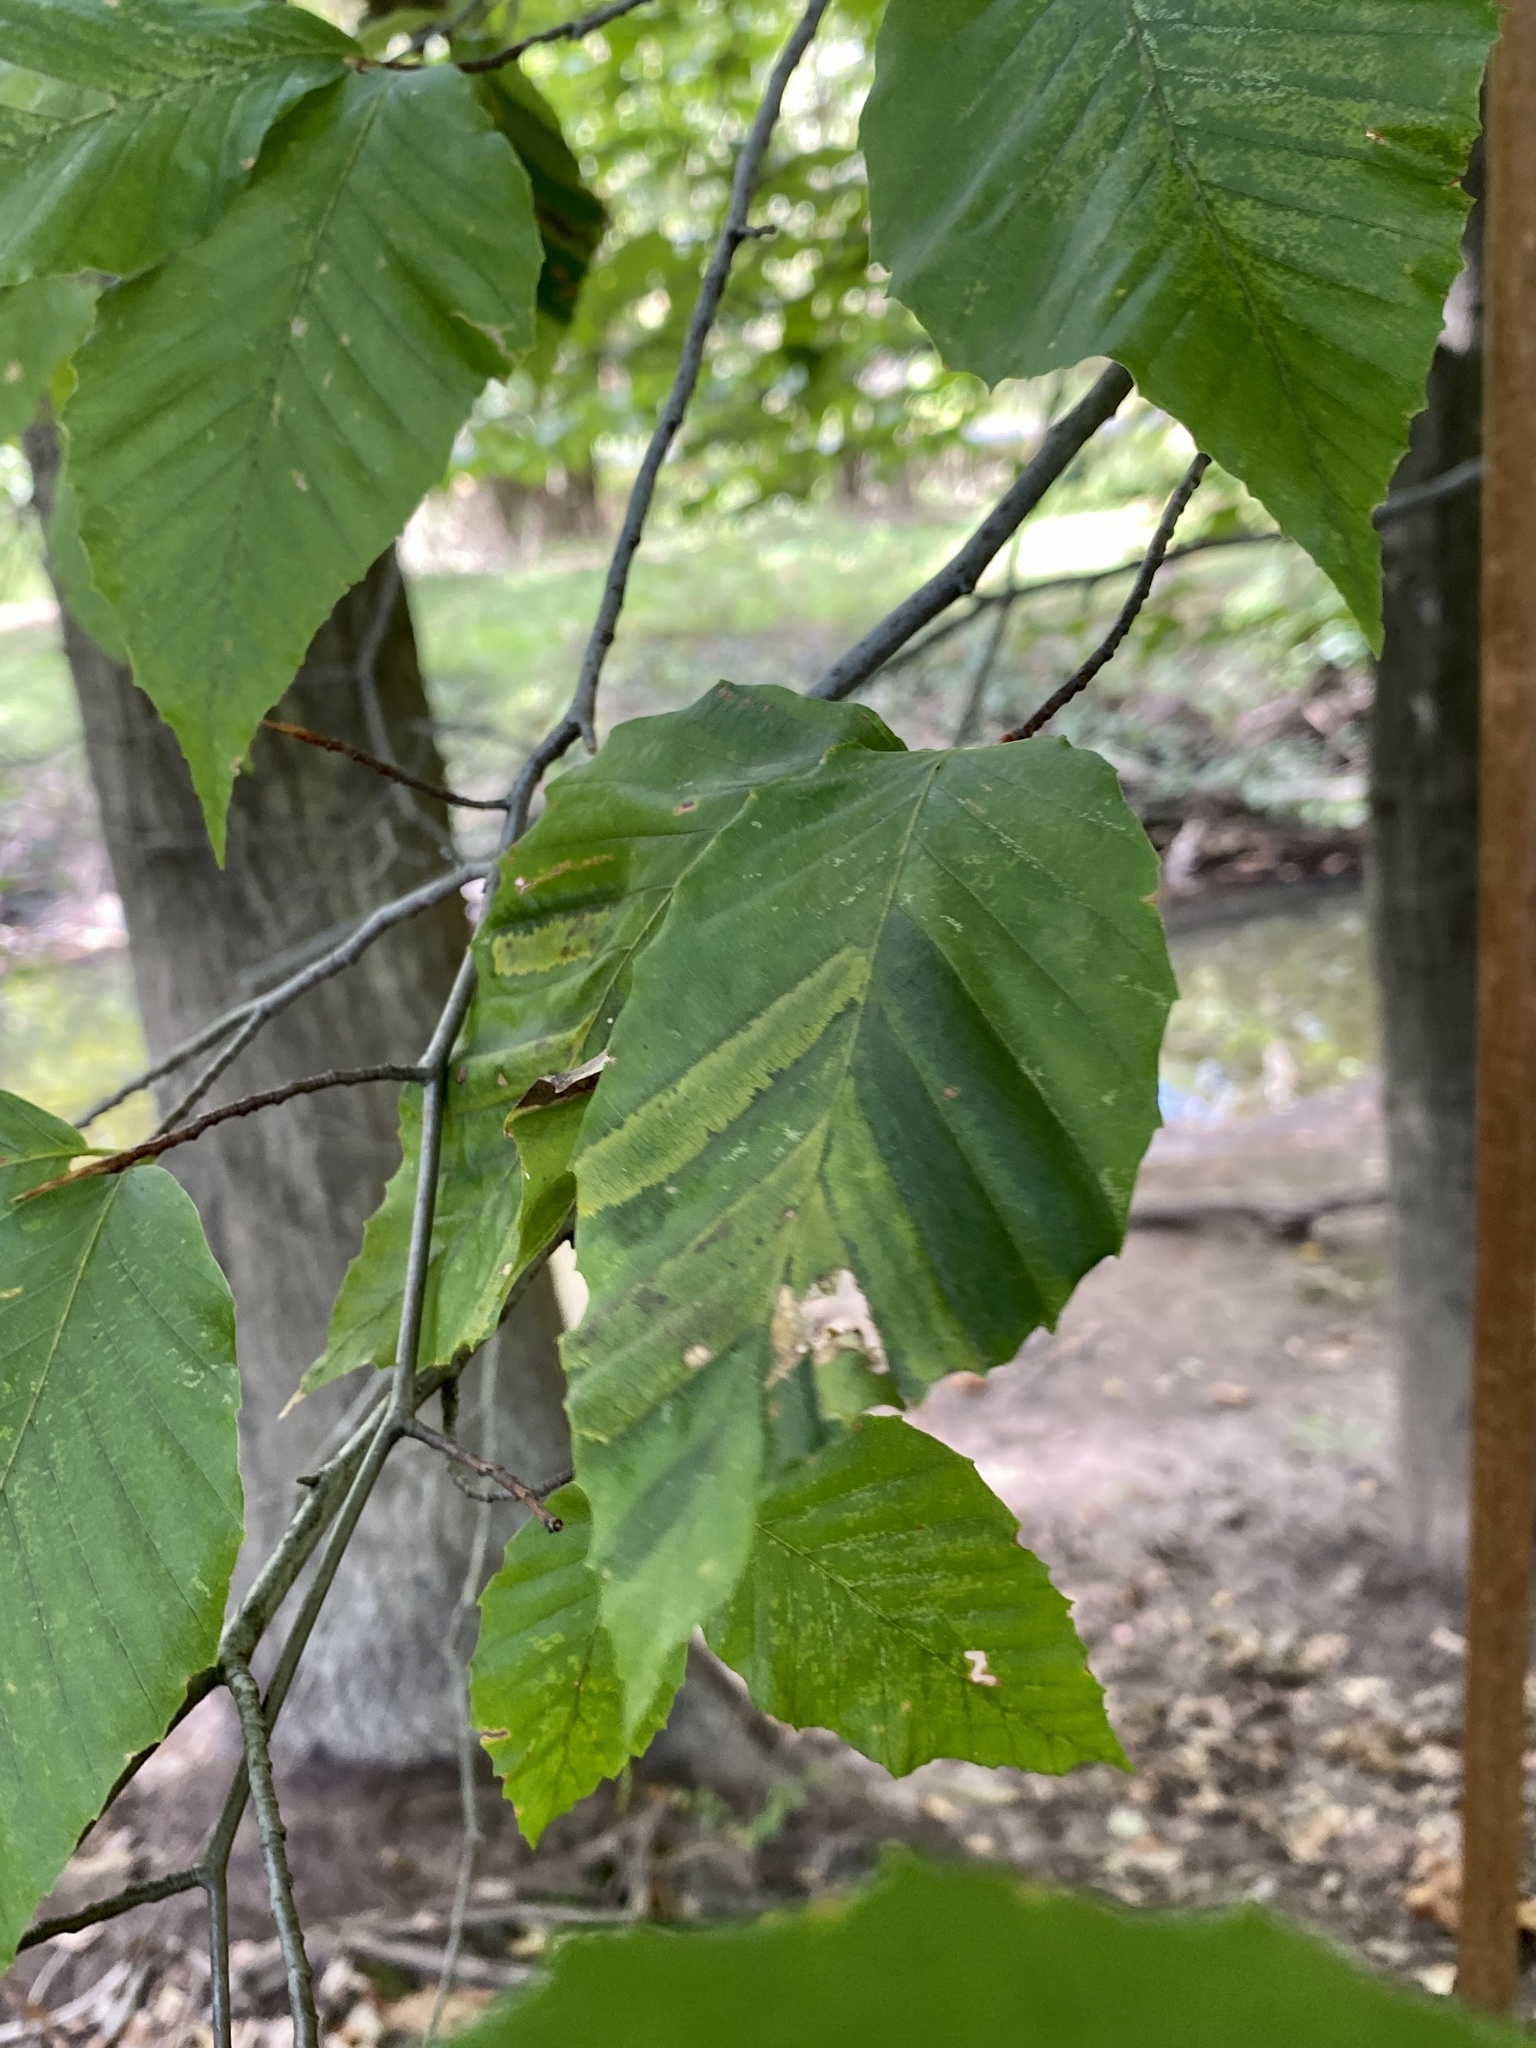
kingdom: Animalia
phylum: Nematoda
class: Chromadorea
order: Rhabditida
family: Anguinidae
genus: Litylenchus
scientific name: Litylenchus crenatae
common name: Beech leaf disease
